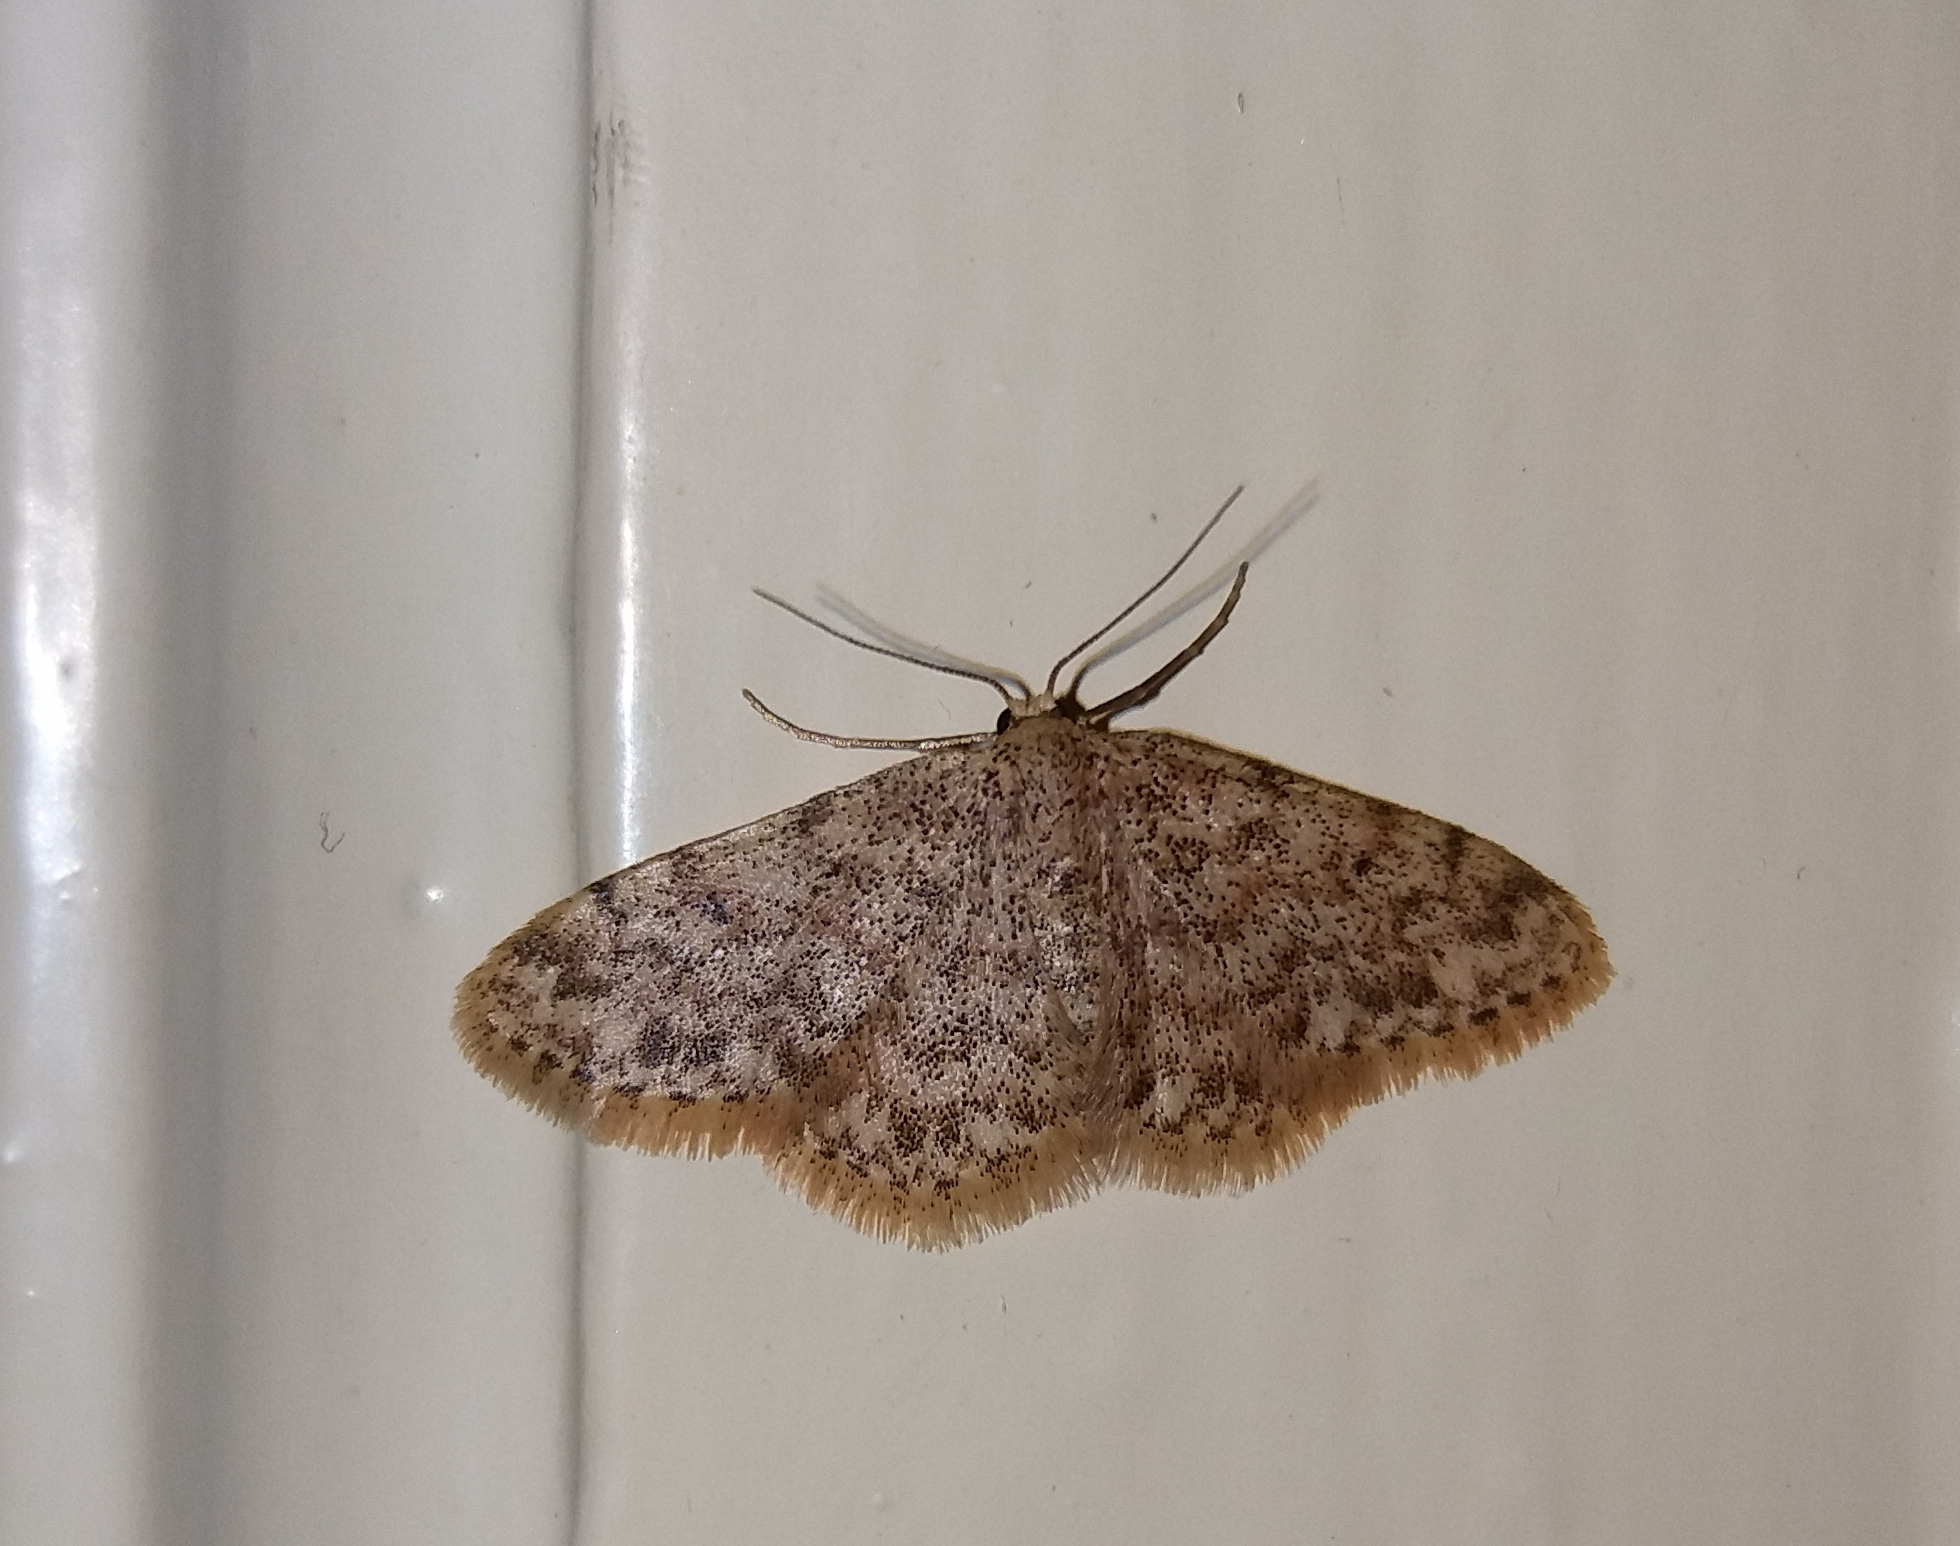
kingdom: Animalia
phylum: Arthropoda
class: Insecta
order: Lepidoptera
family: Geometridae
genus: Idaea
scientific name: Idaea cervantaria
